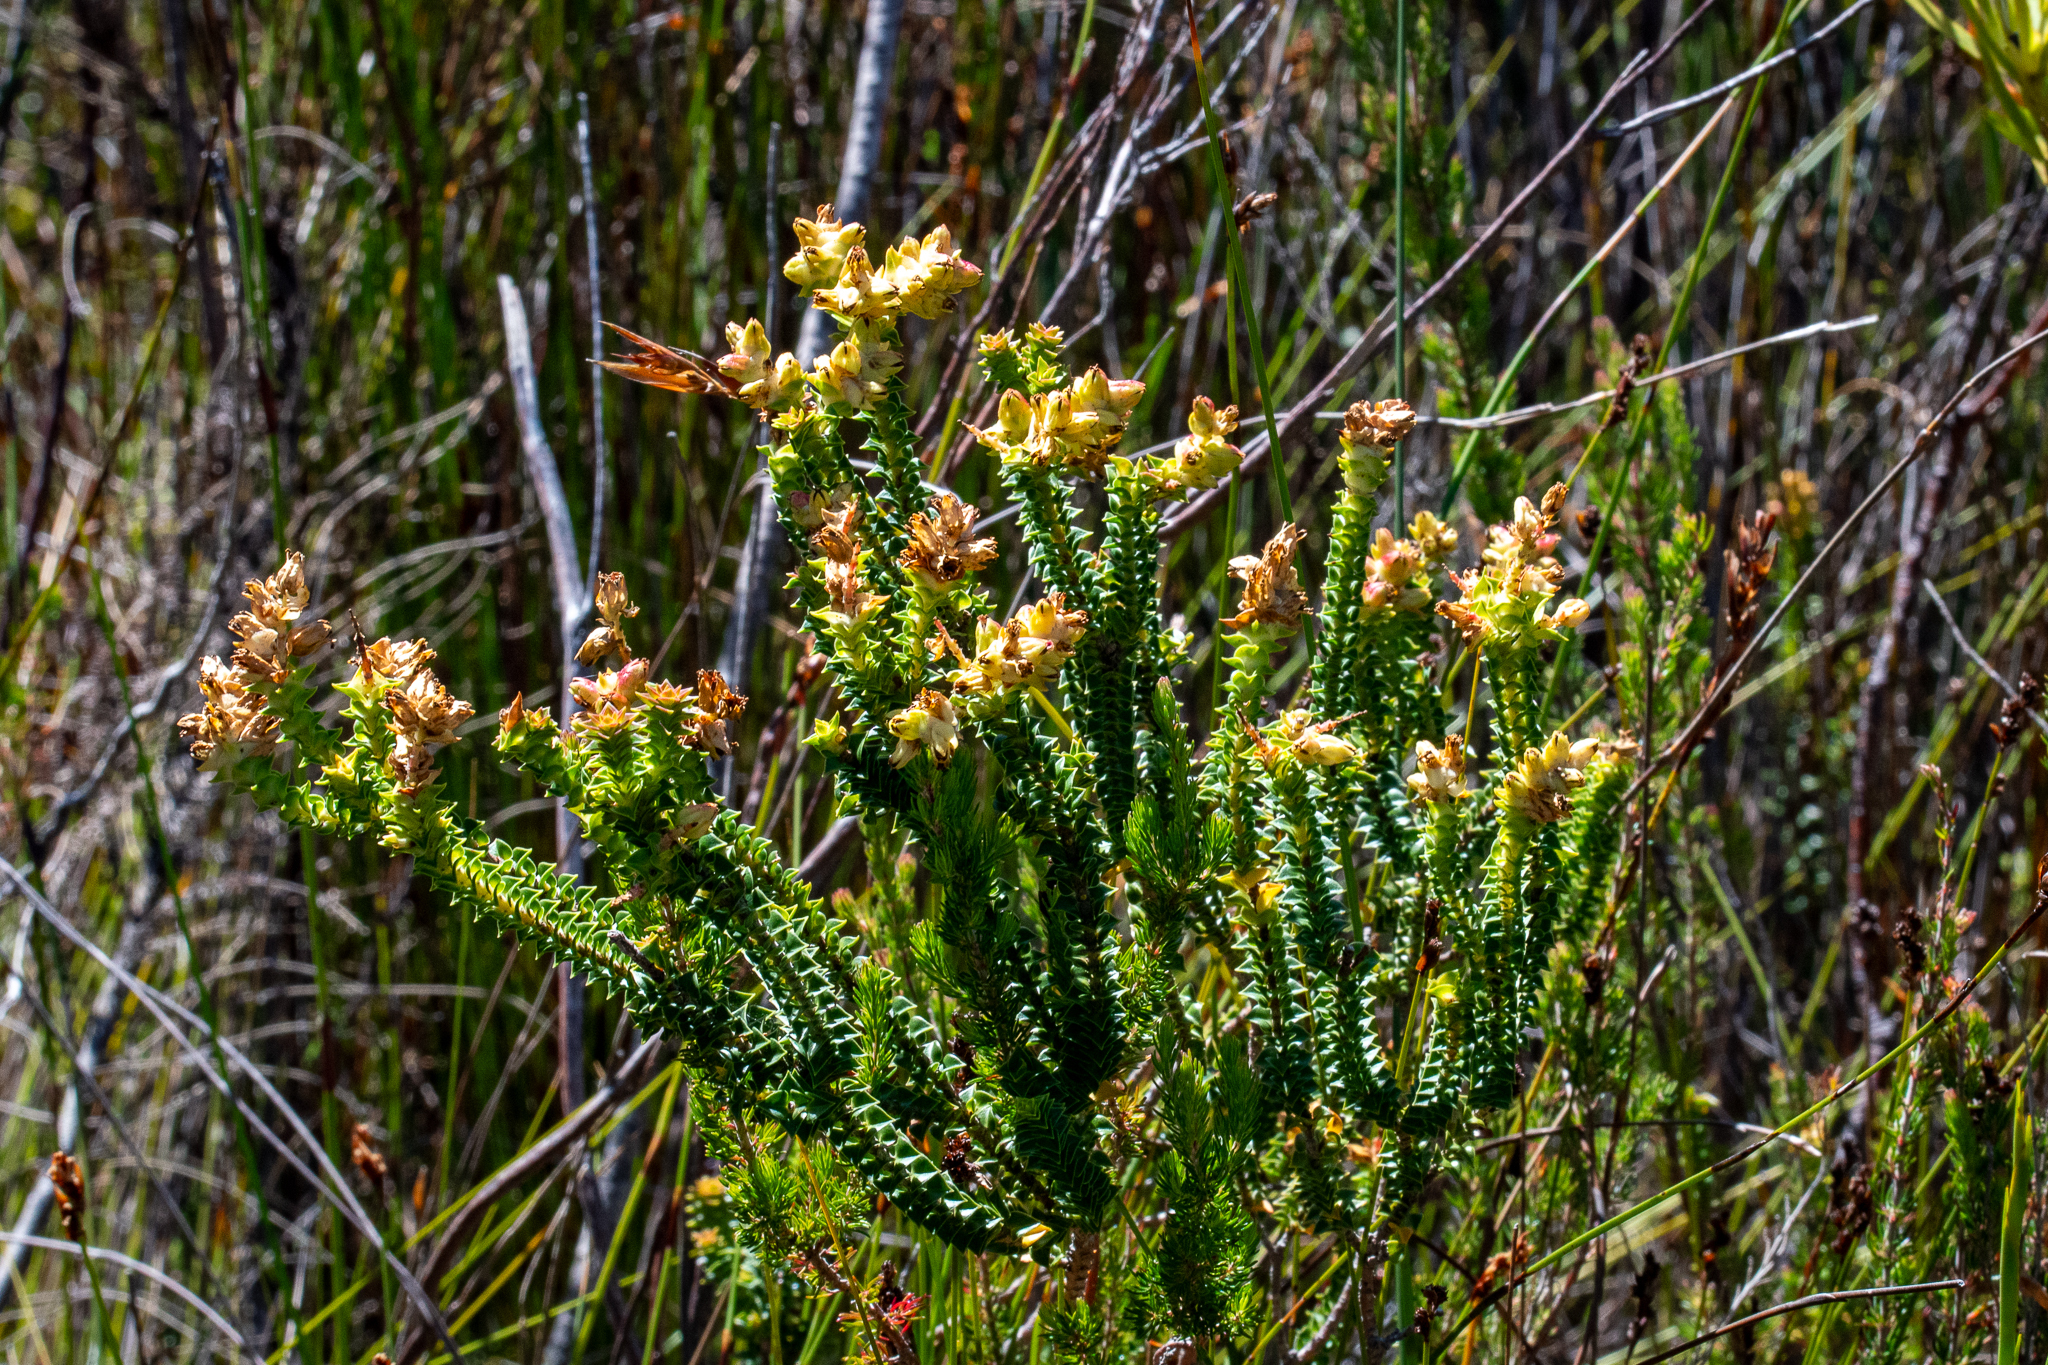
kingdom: Plantae
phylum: Tracheophyta
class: Magnoliopsida
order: Myrtales
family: Penaeaceae
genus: Penaea
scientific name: Penaea cneorum
